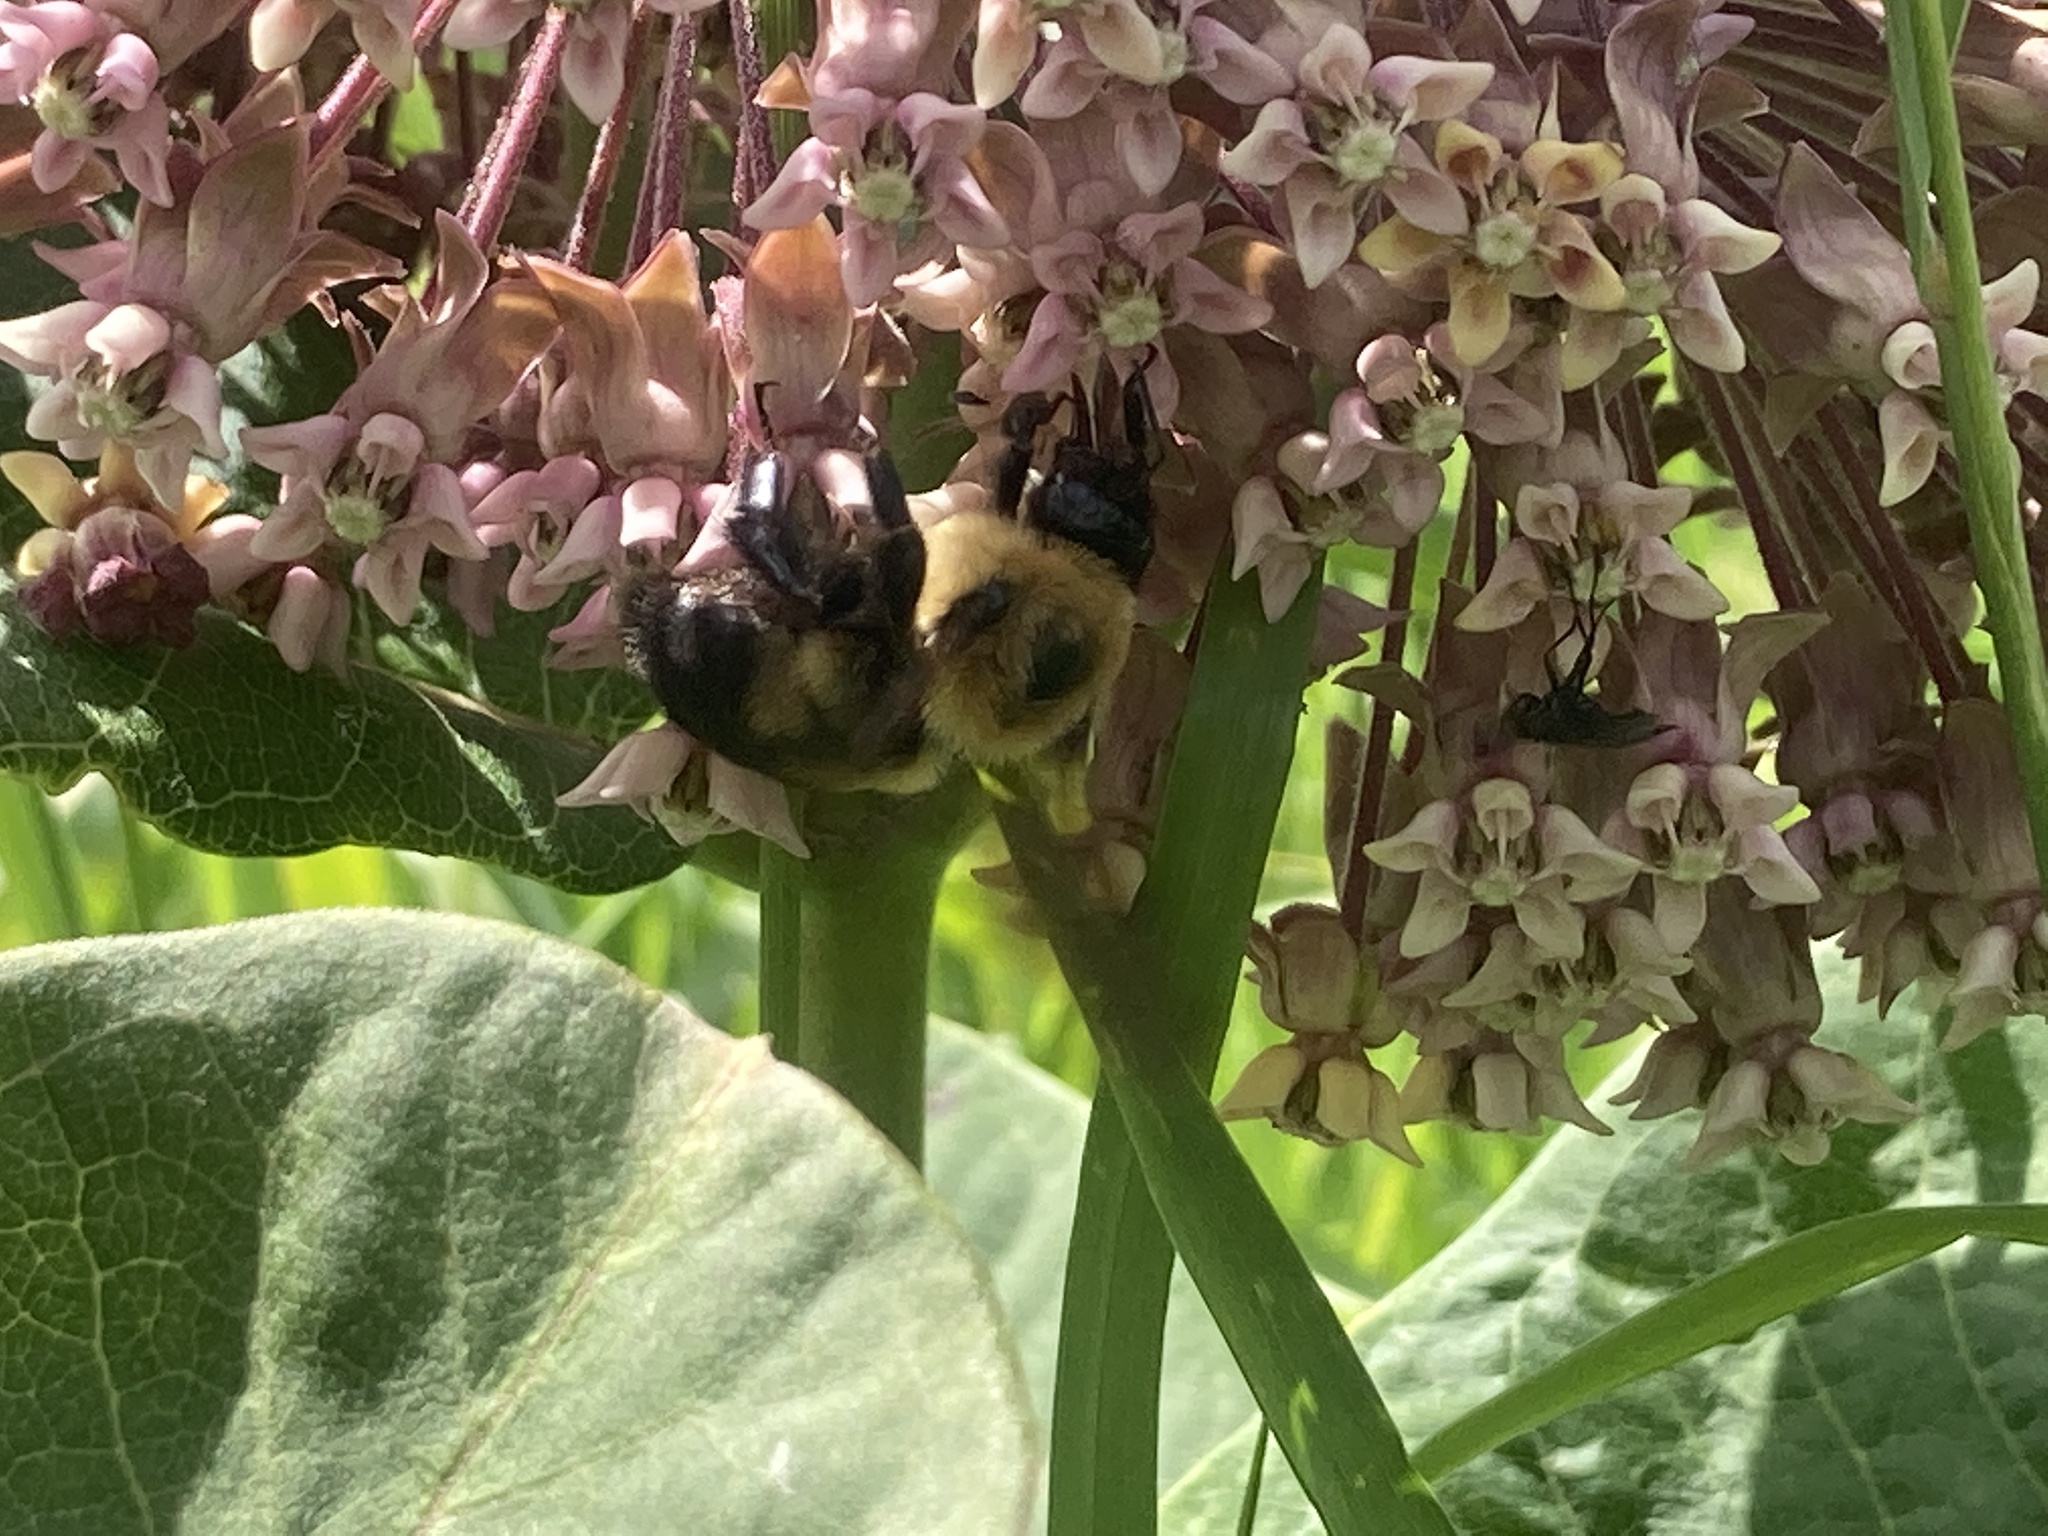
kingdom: Animalia
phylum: Arthropoda
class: Insecta
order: Hymenoptera
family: Apidae
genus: Bombus
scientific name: Bombus griseocollis
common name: Brown-belted bumble bee
